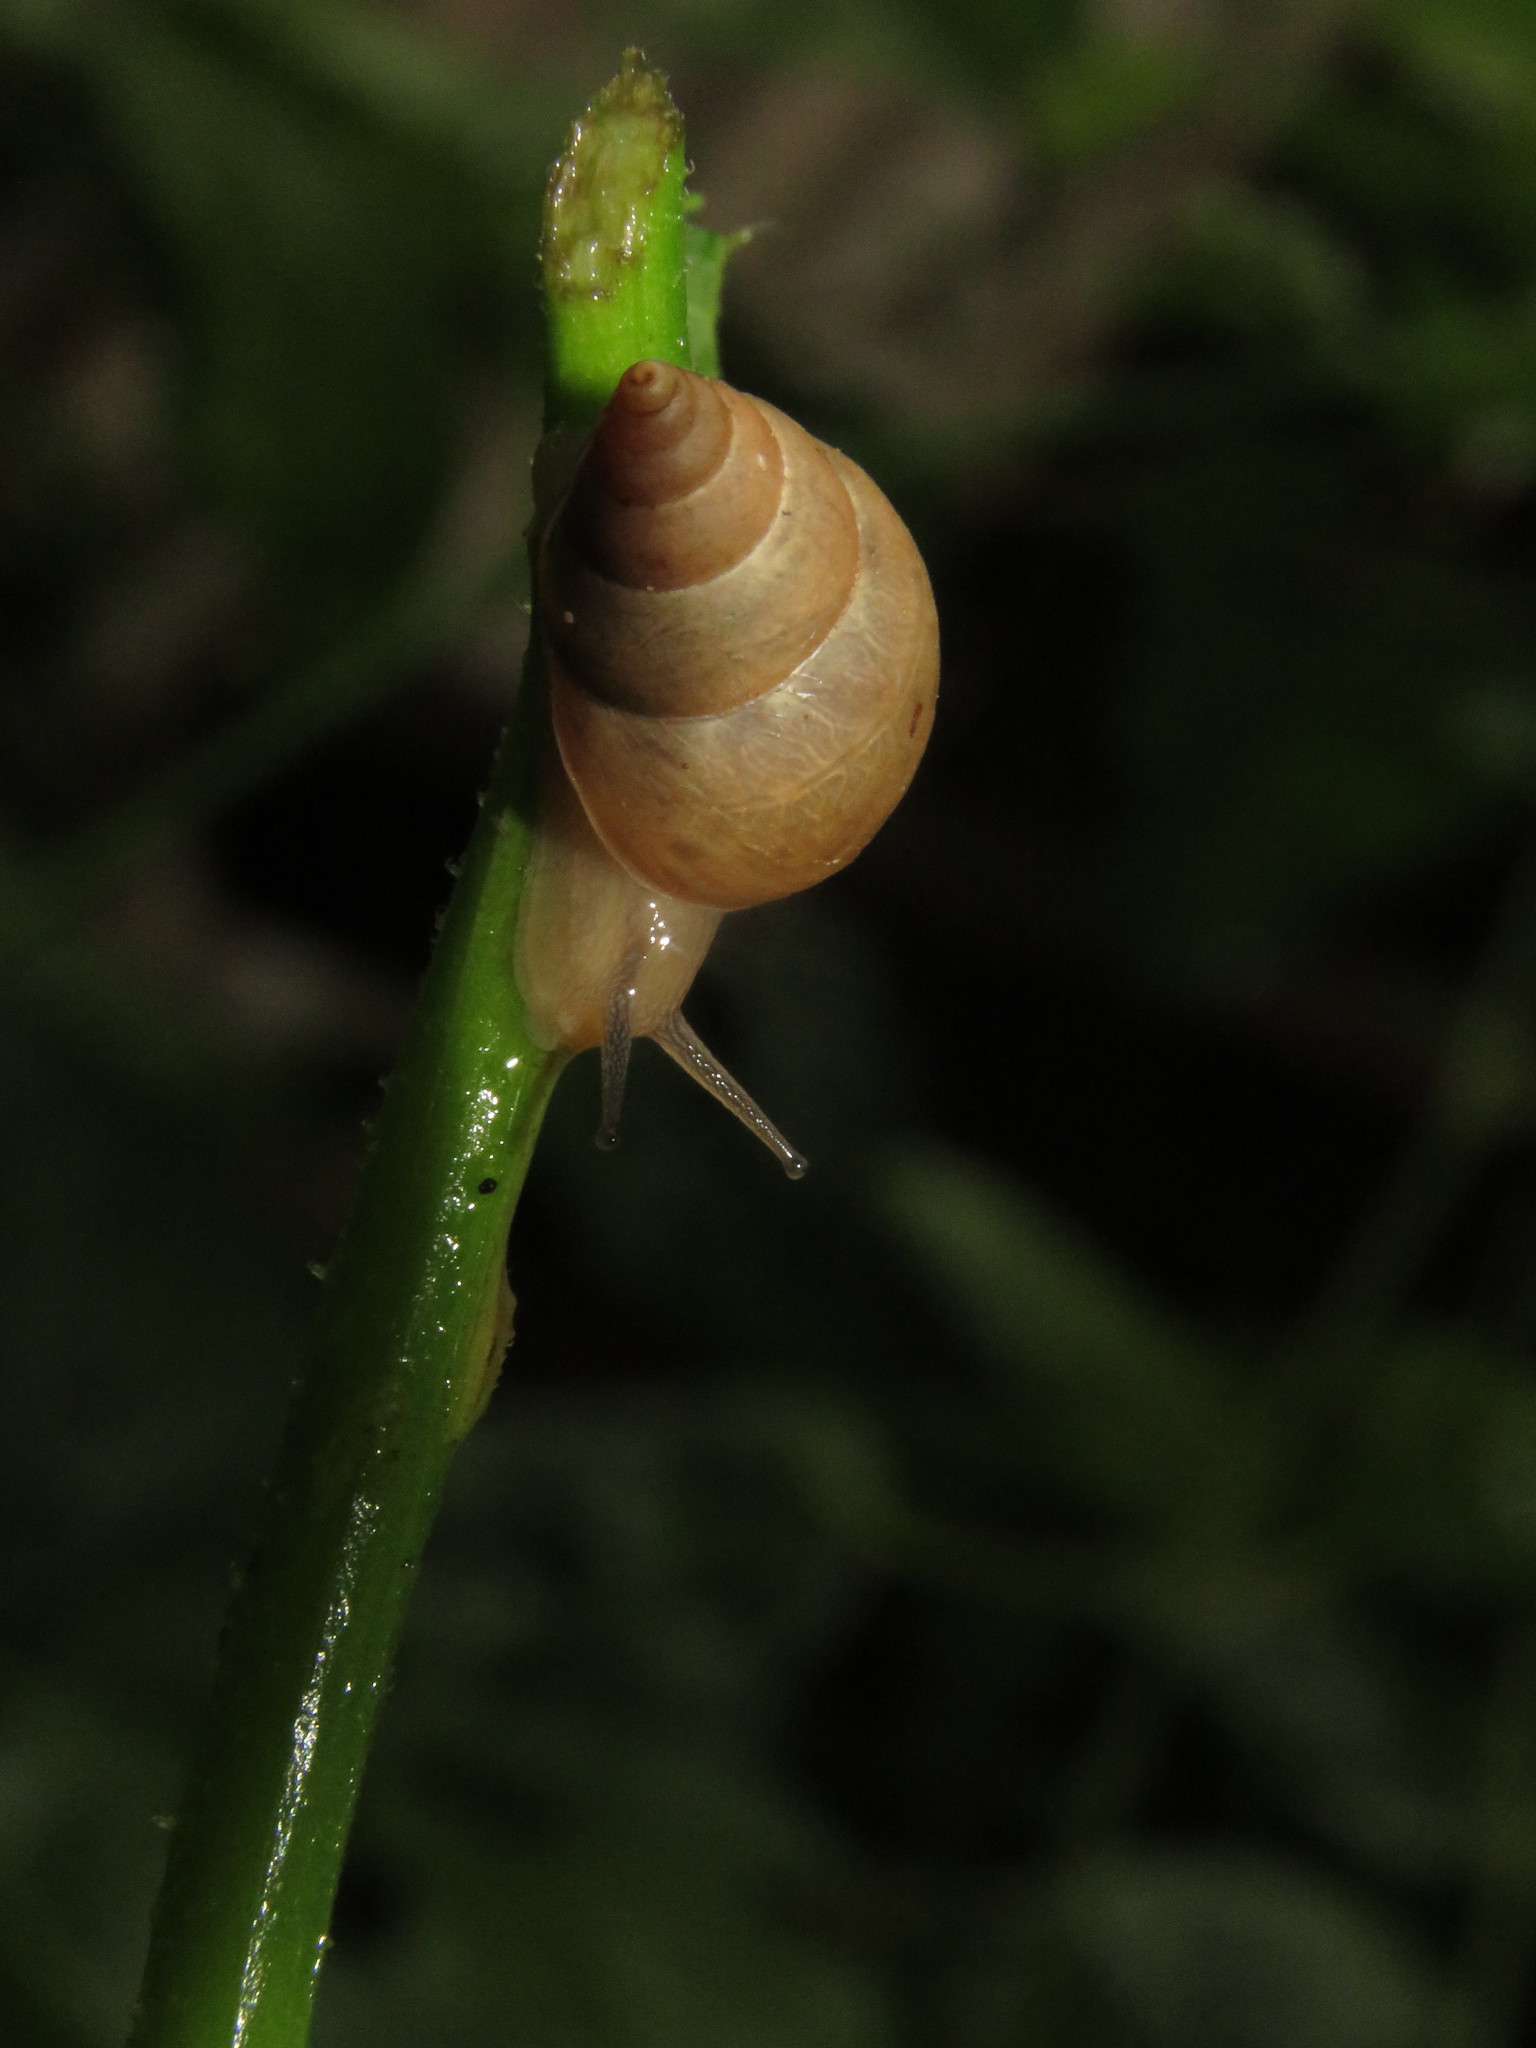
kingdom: Animalia
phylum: Mollusca
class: Gastropoda
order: Stylommatophora
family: Bulimulidae
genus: Bulimulus
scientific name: Bulimulus tenuissimus
